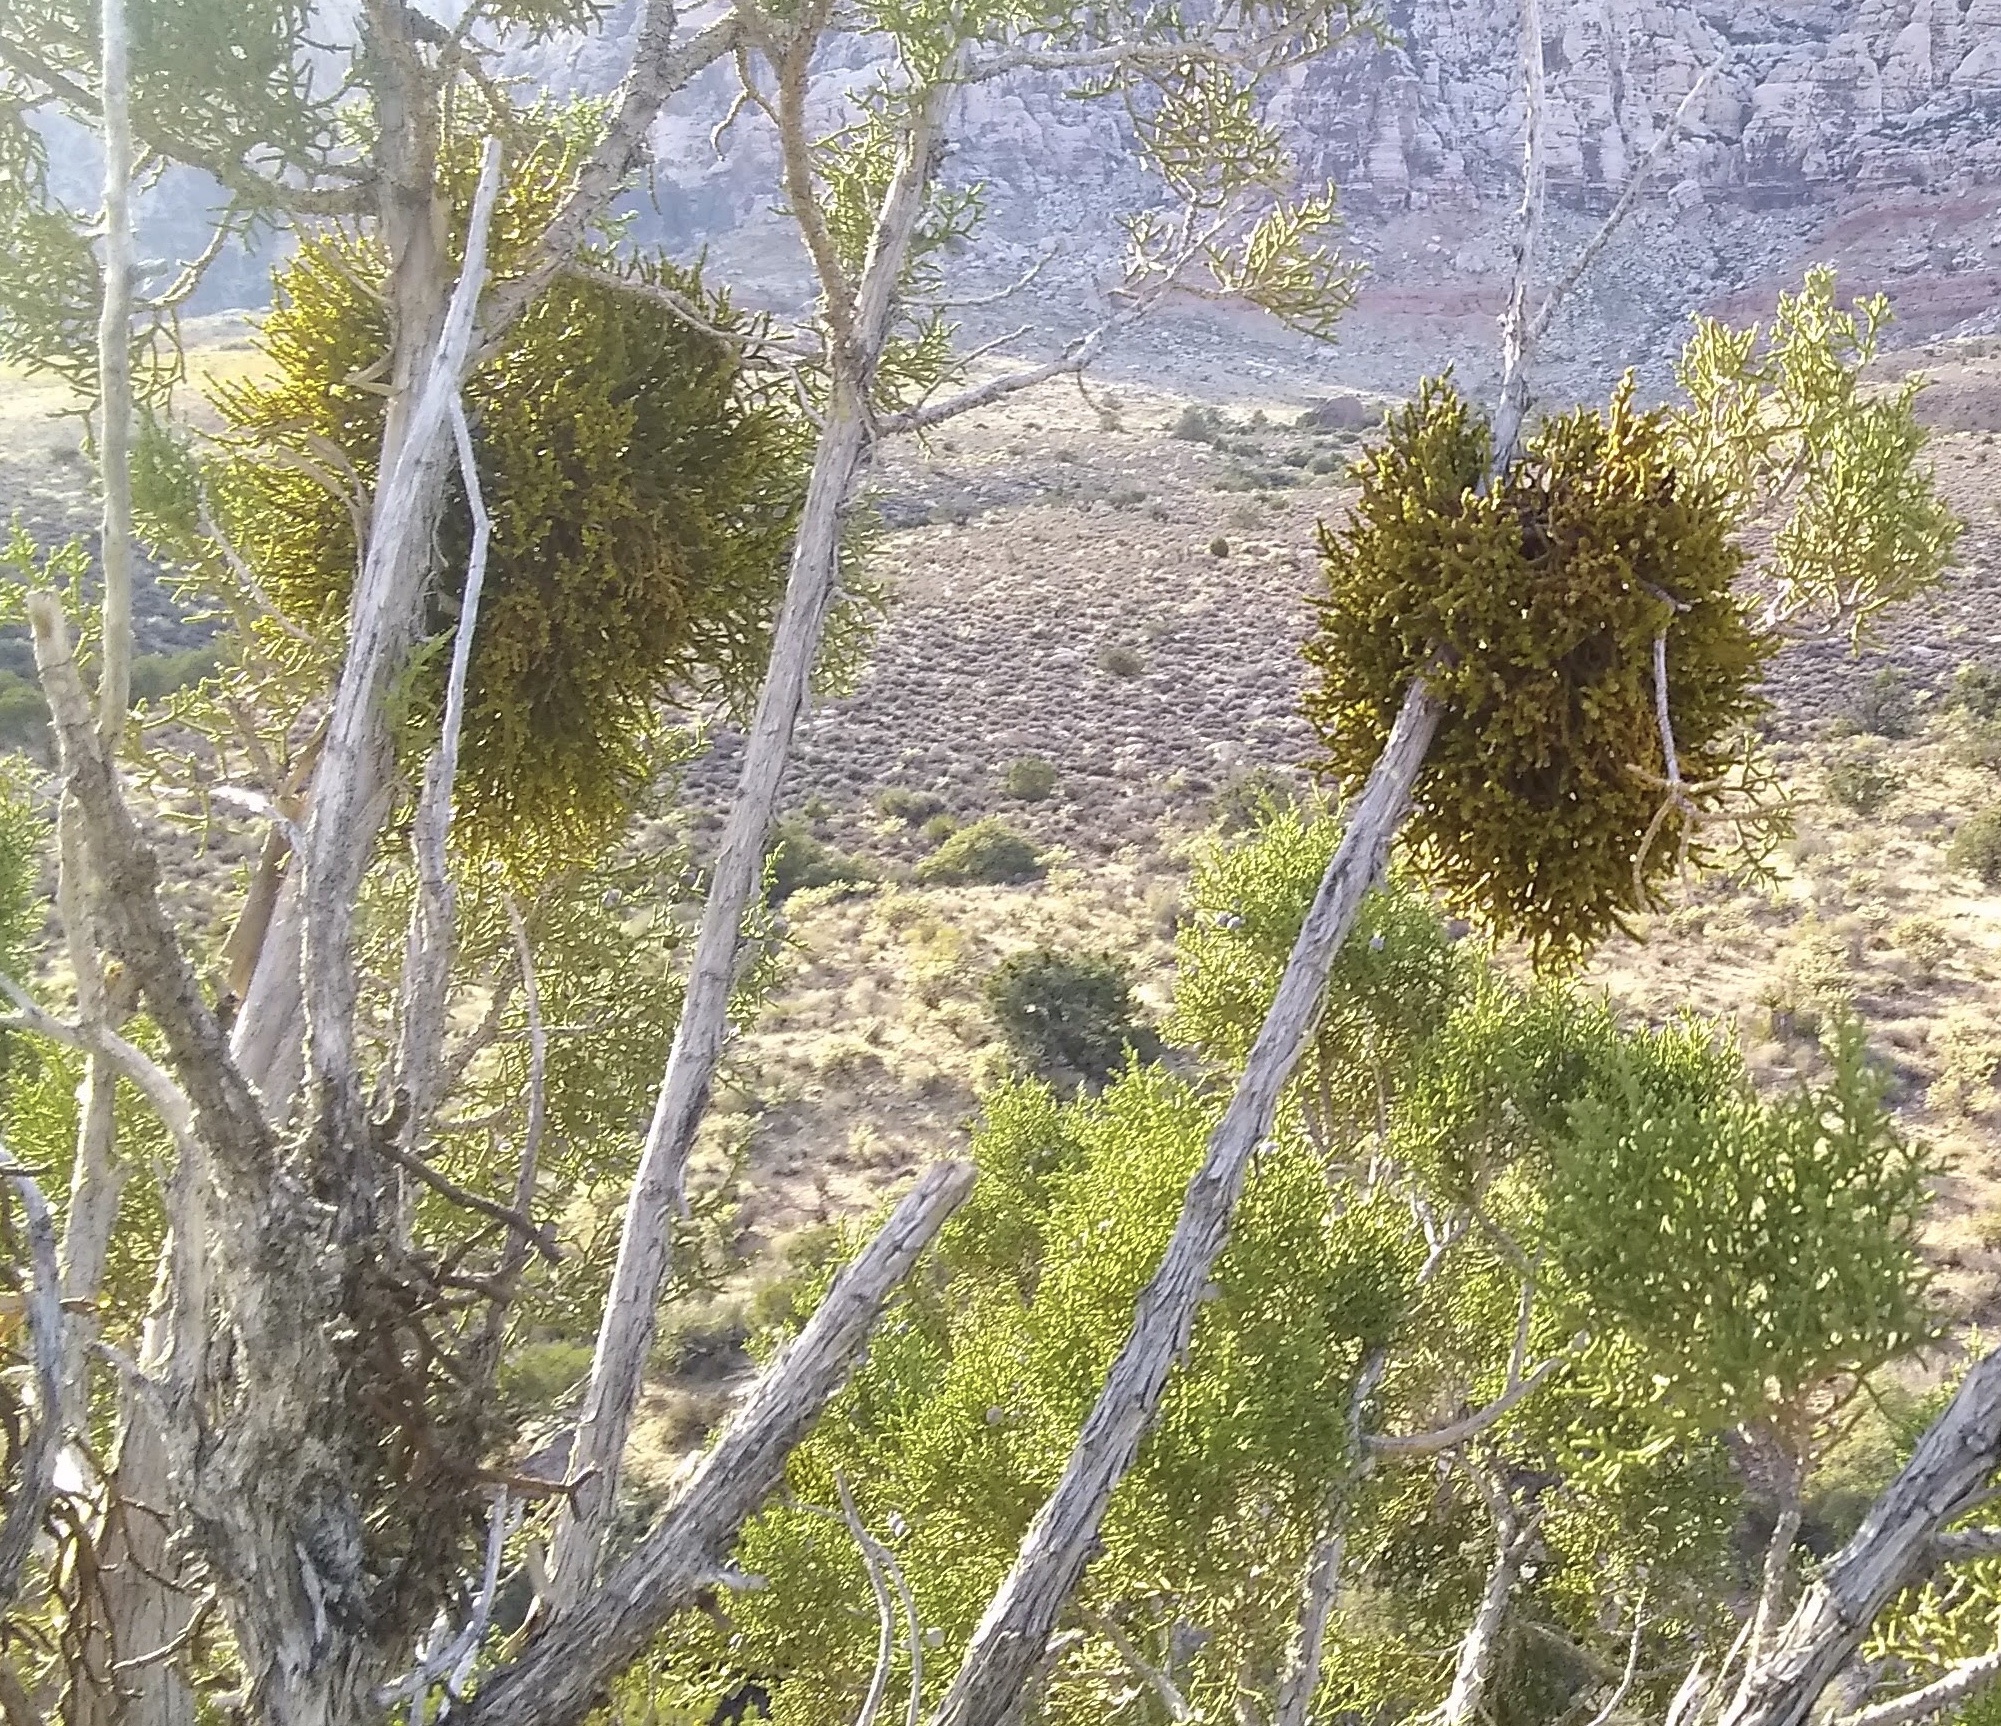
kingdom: Plantae
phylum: Tracheophyta
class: Magnoliopsida
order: Santalales
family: Viscaceae
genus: Phoradendron
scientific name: Phoradendron juniperinum
